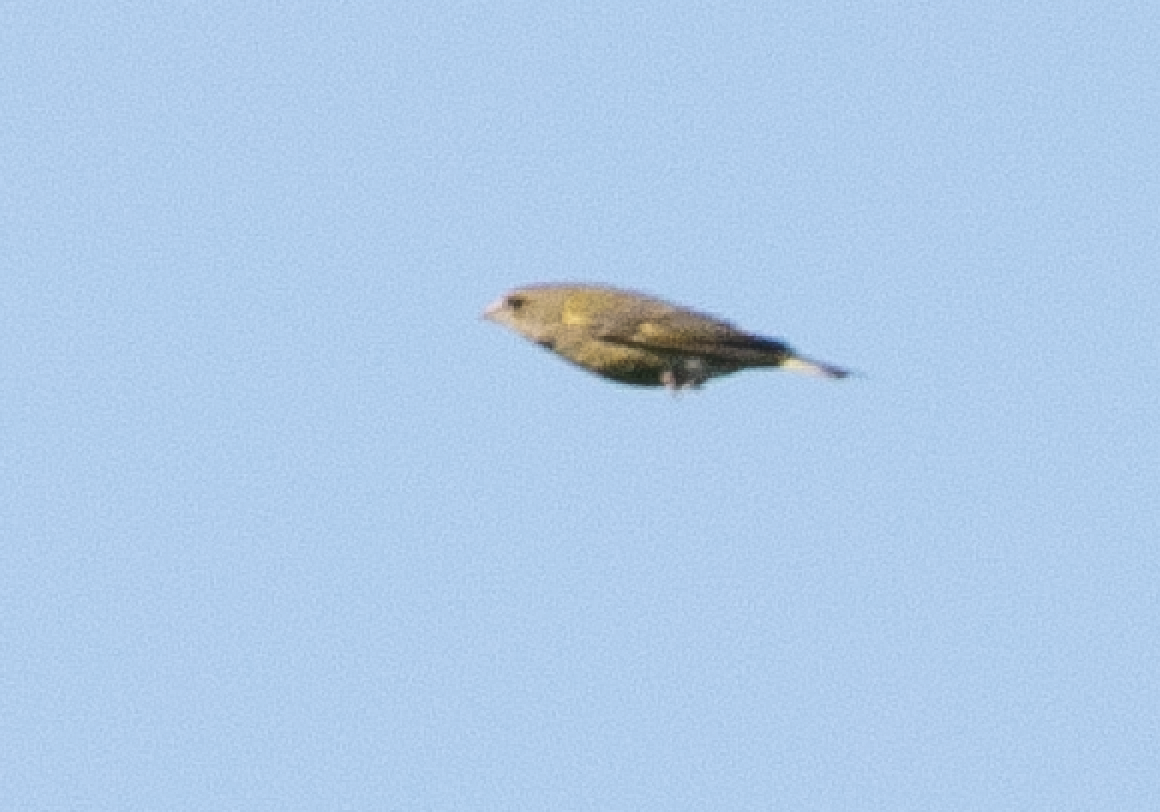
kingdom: Plantae
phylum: Tracheophyta
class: Liliopsida
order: Poales
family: Poaceae
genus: Chloris
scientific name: Chloris chloris
